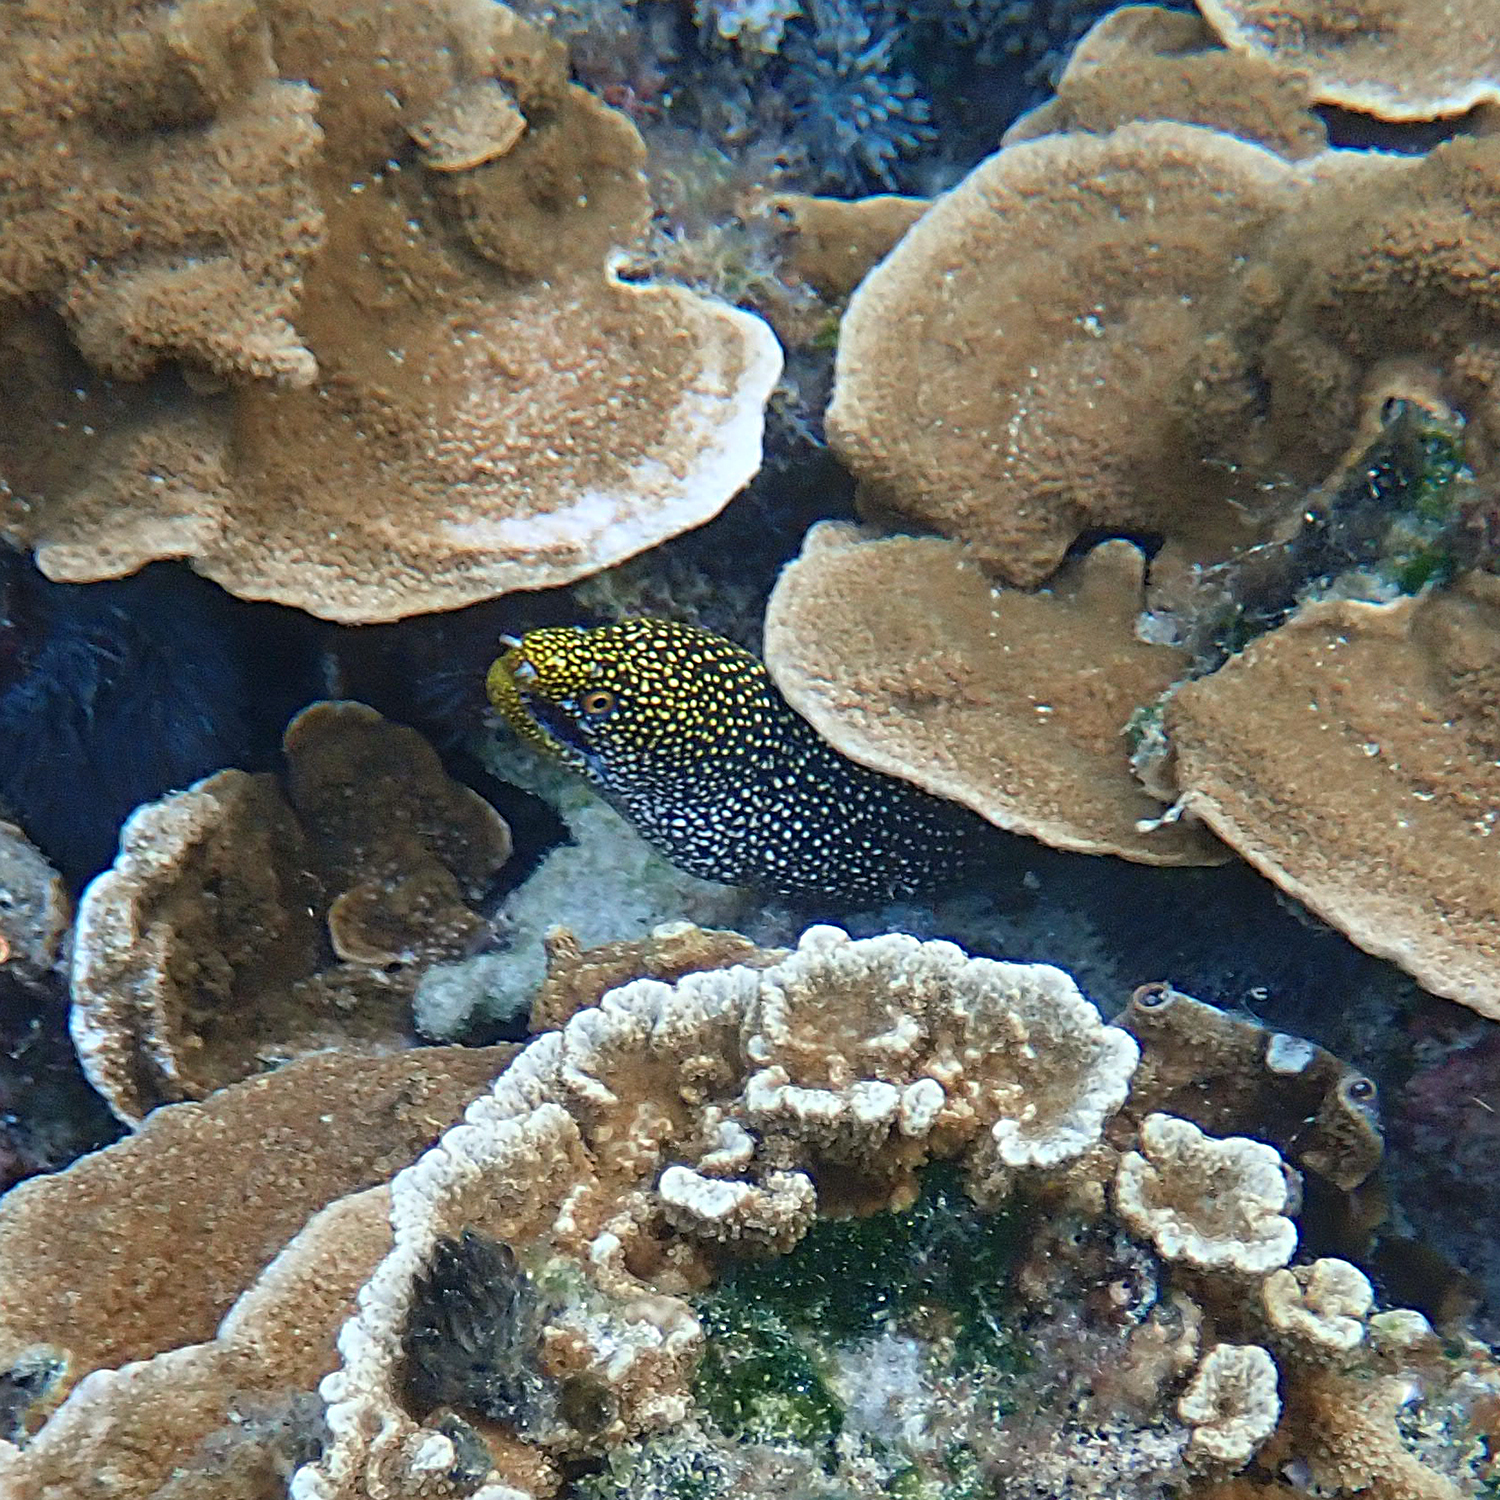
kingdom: Animalia
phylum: Chordata
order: Anguilliformes
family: Muraenidae
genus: Gymnothorax
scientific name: Gymnothorax eurostus
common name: Stout moray
